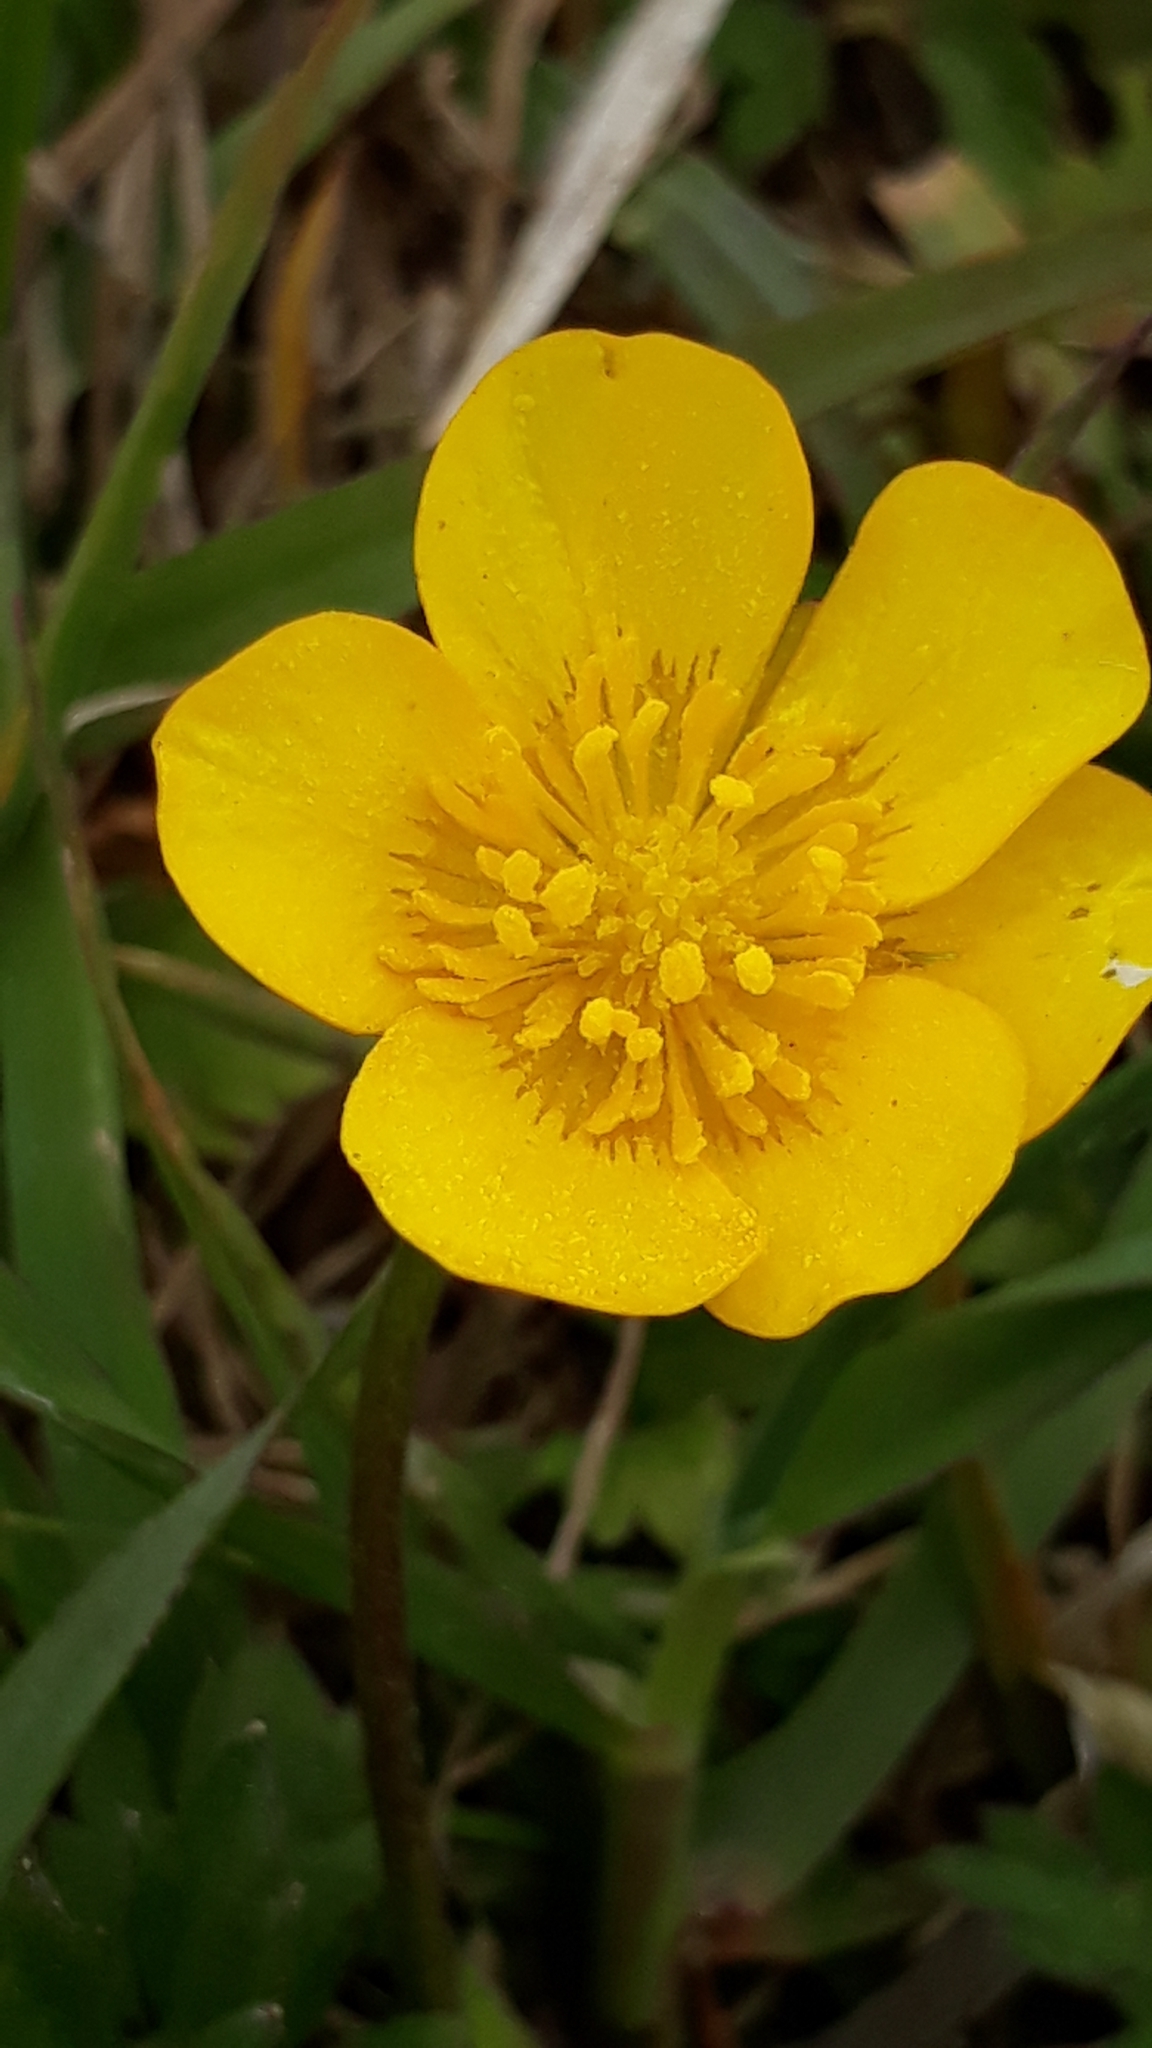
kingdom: Plantae
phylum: Tracheophyta
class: Magnoliopsida
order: Ranunculales
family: Ranunculaceae
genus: Ranunculus
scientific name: Ranunculus repens
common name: Creeping buttercup
